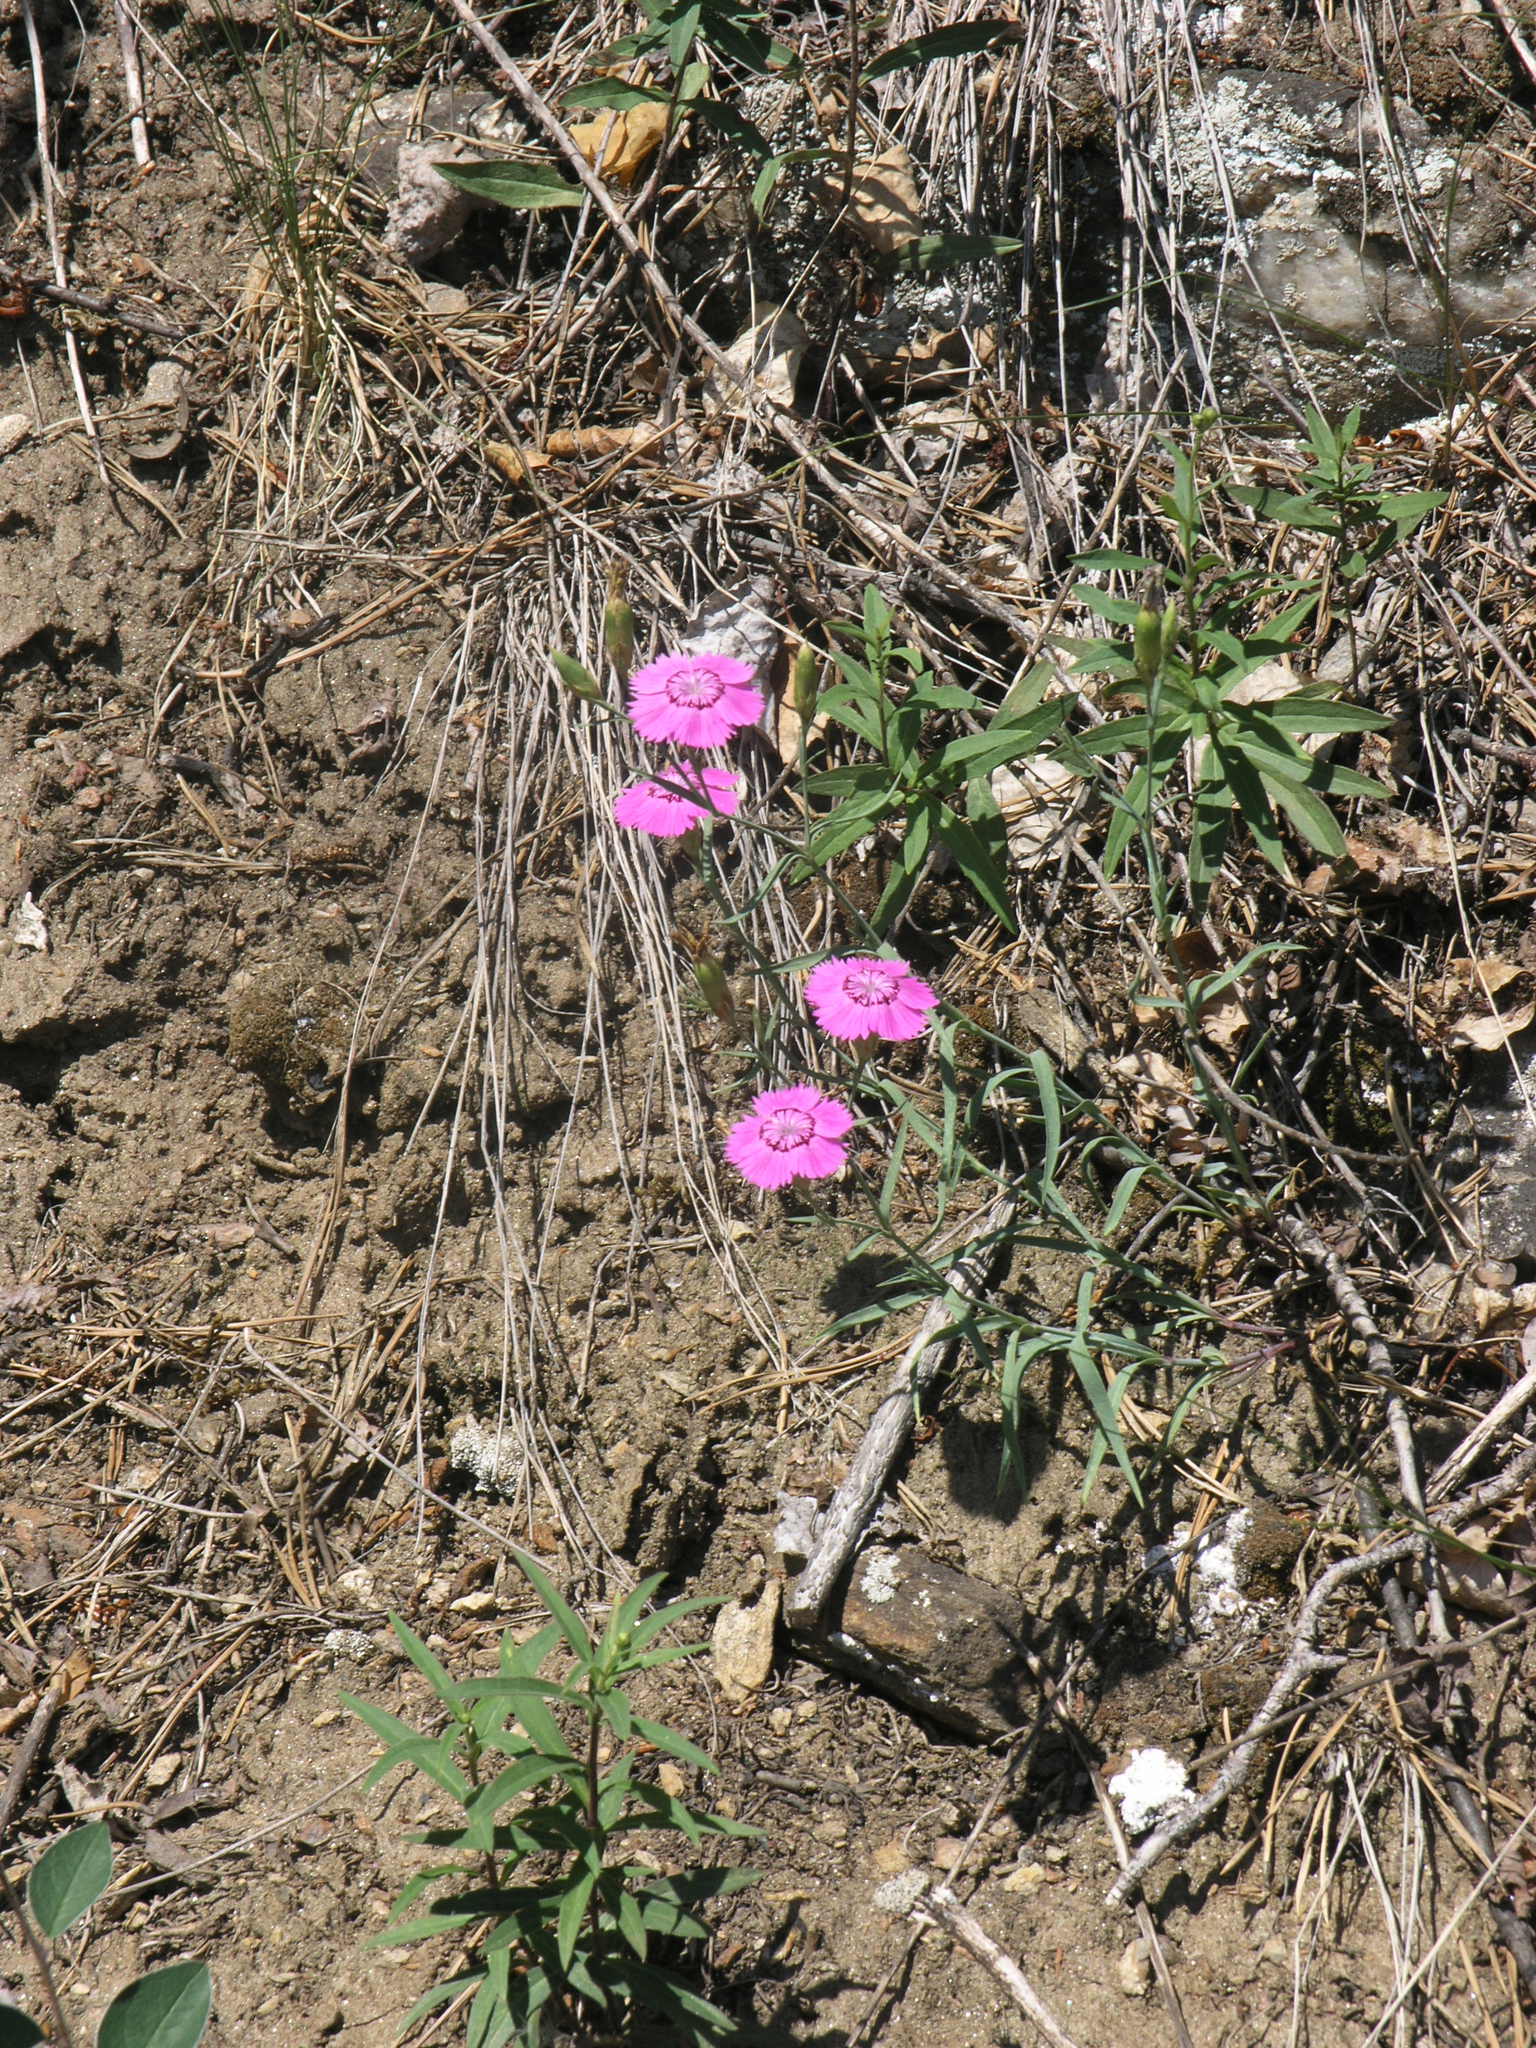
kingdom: Plantae
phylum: Tracheophyta
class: Magnoliopsida
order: Caryophyllales
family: Caryophyllaceae
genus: Dianthus
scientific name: Dianthus chinensis
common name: Rainbow pink
